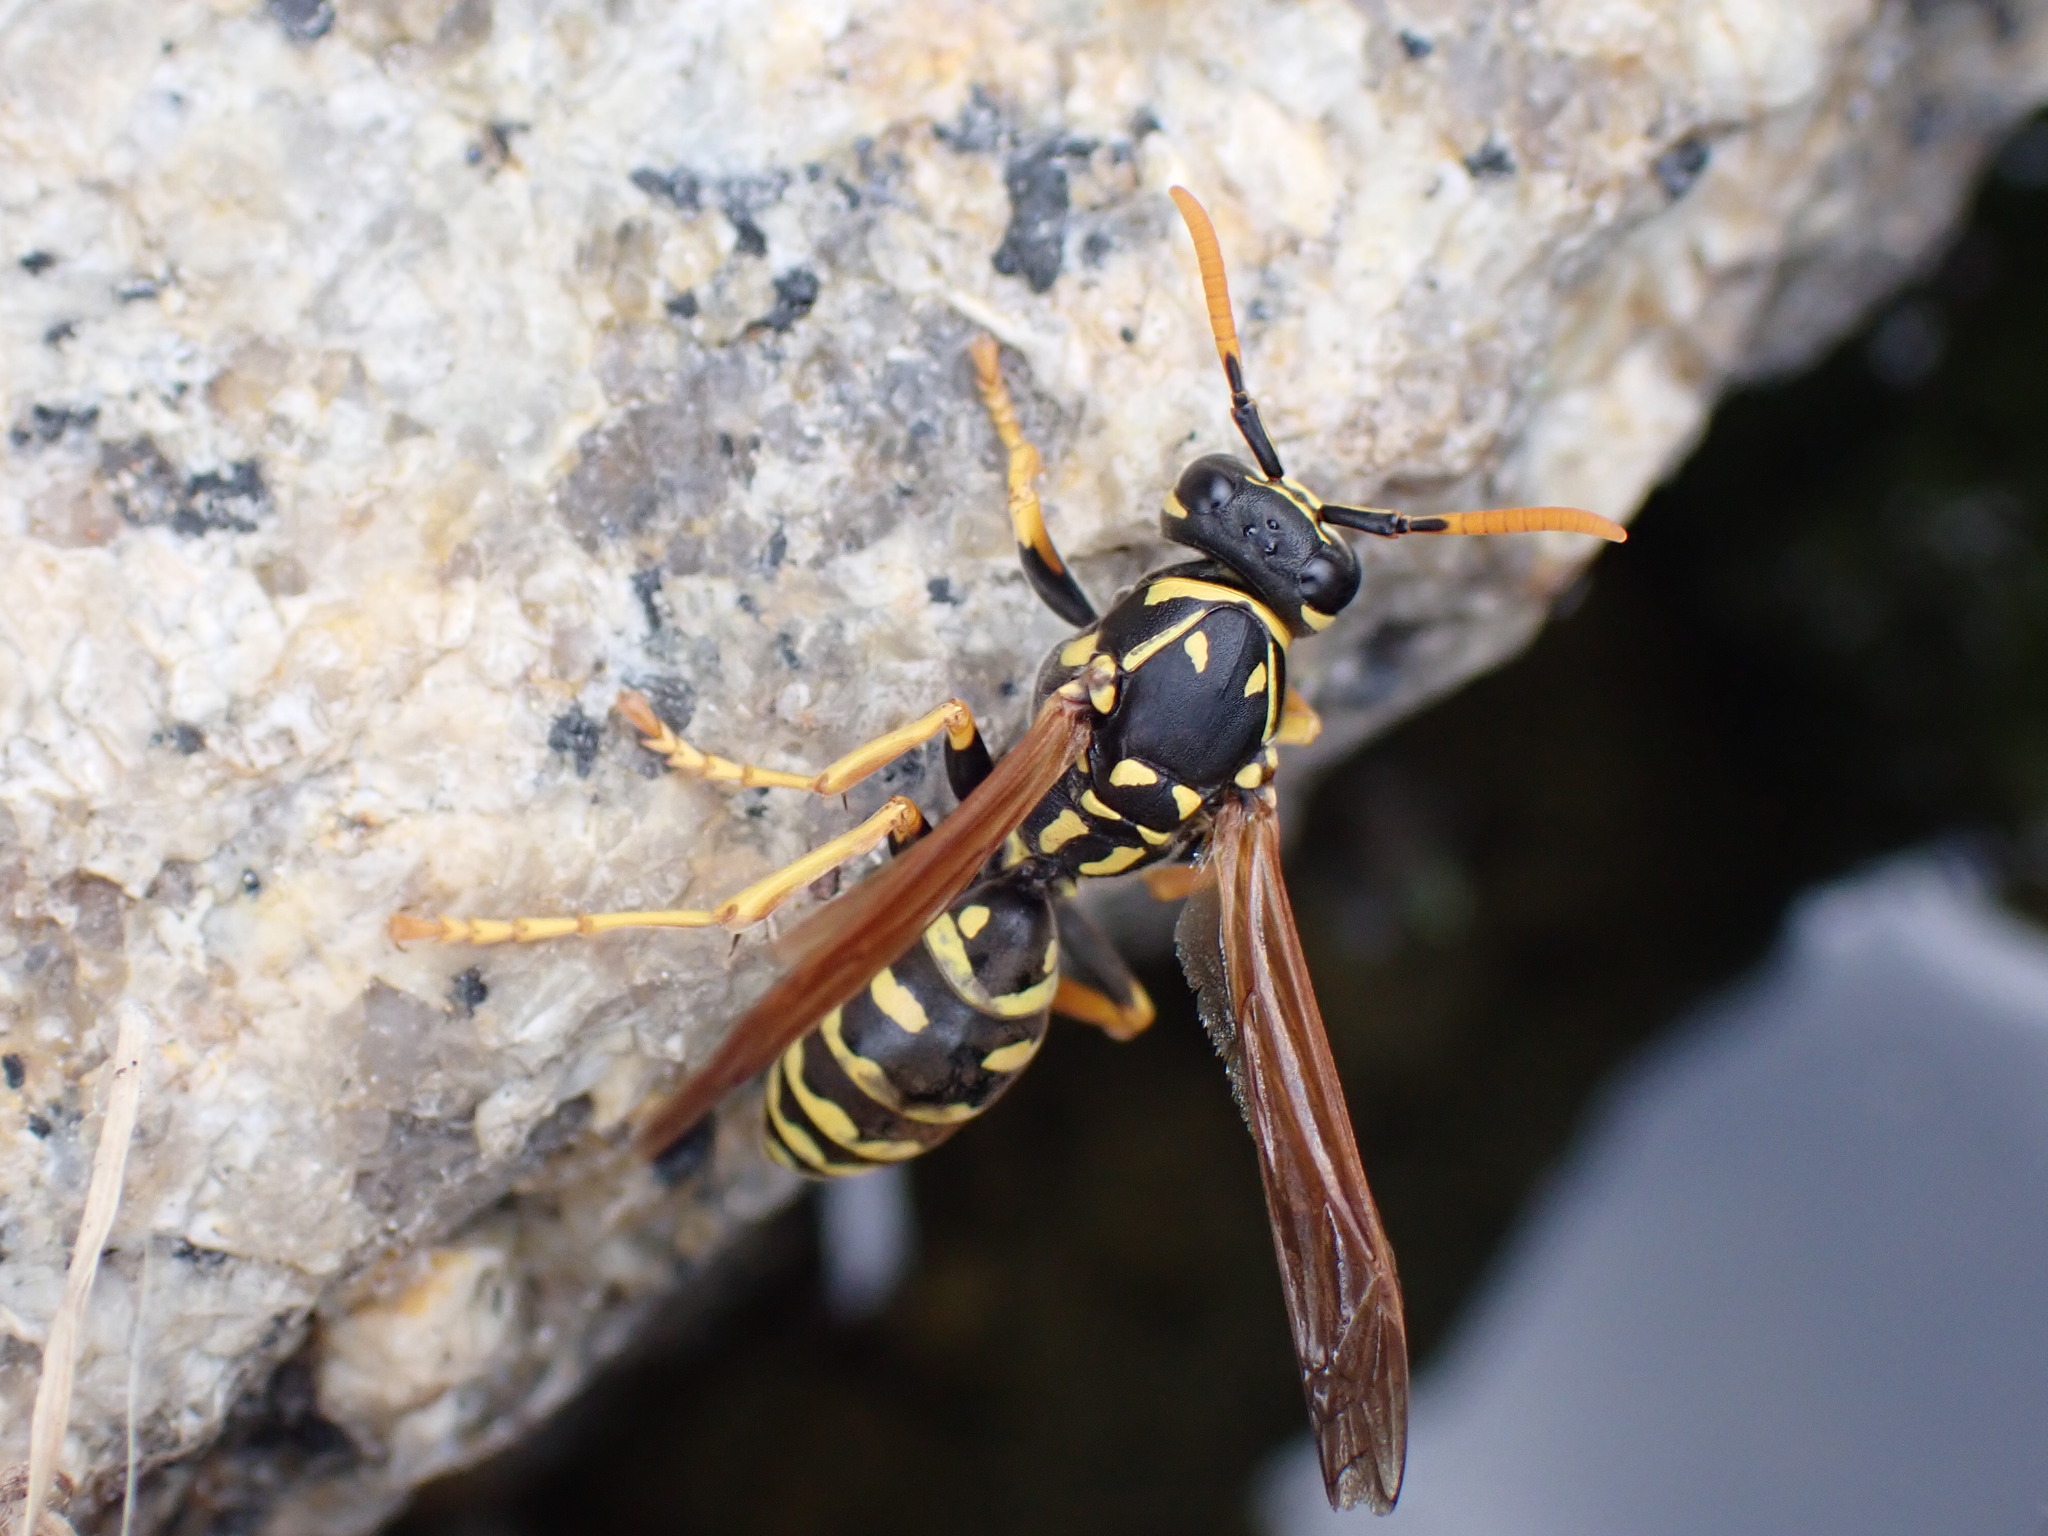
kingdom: Animalia
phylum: Arthropoda
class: Insecta
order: Hymenoptera
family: Eumenidae
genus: Polistes
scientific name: Polistes dominula
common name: Paper wasp
